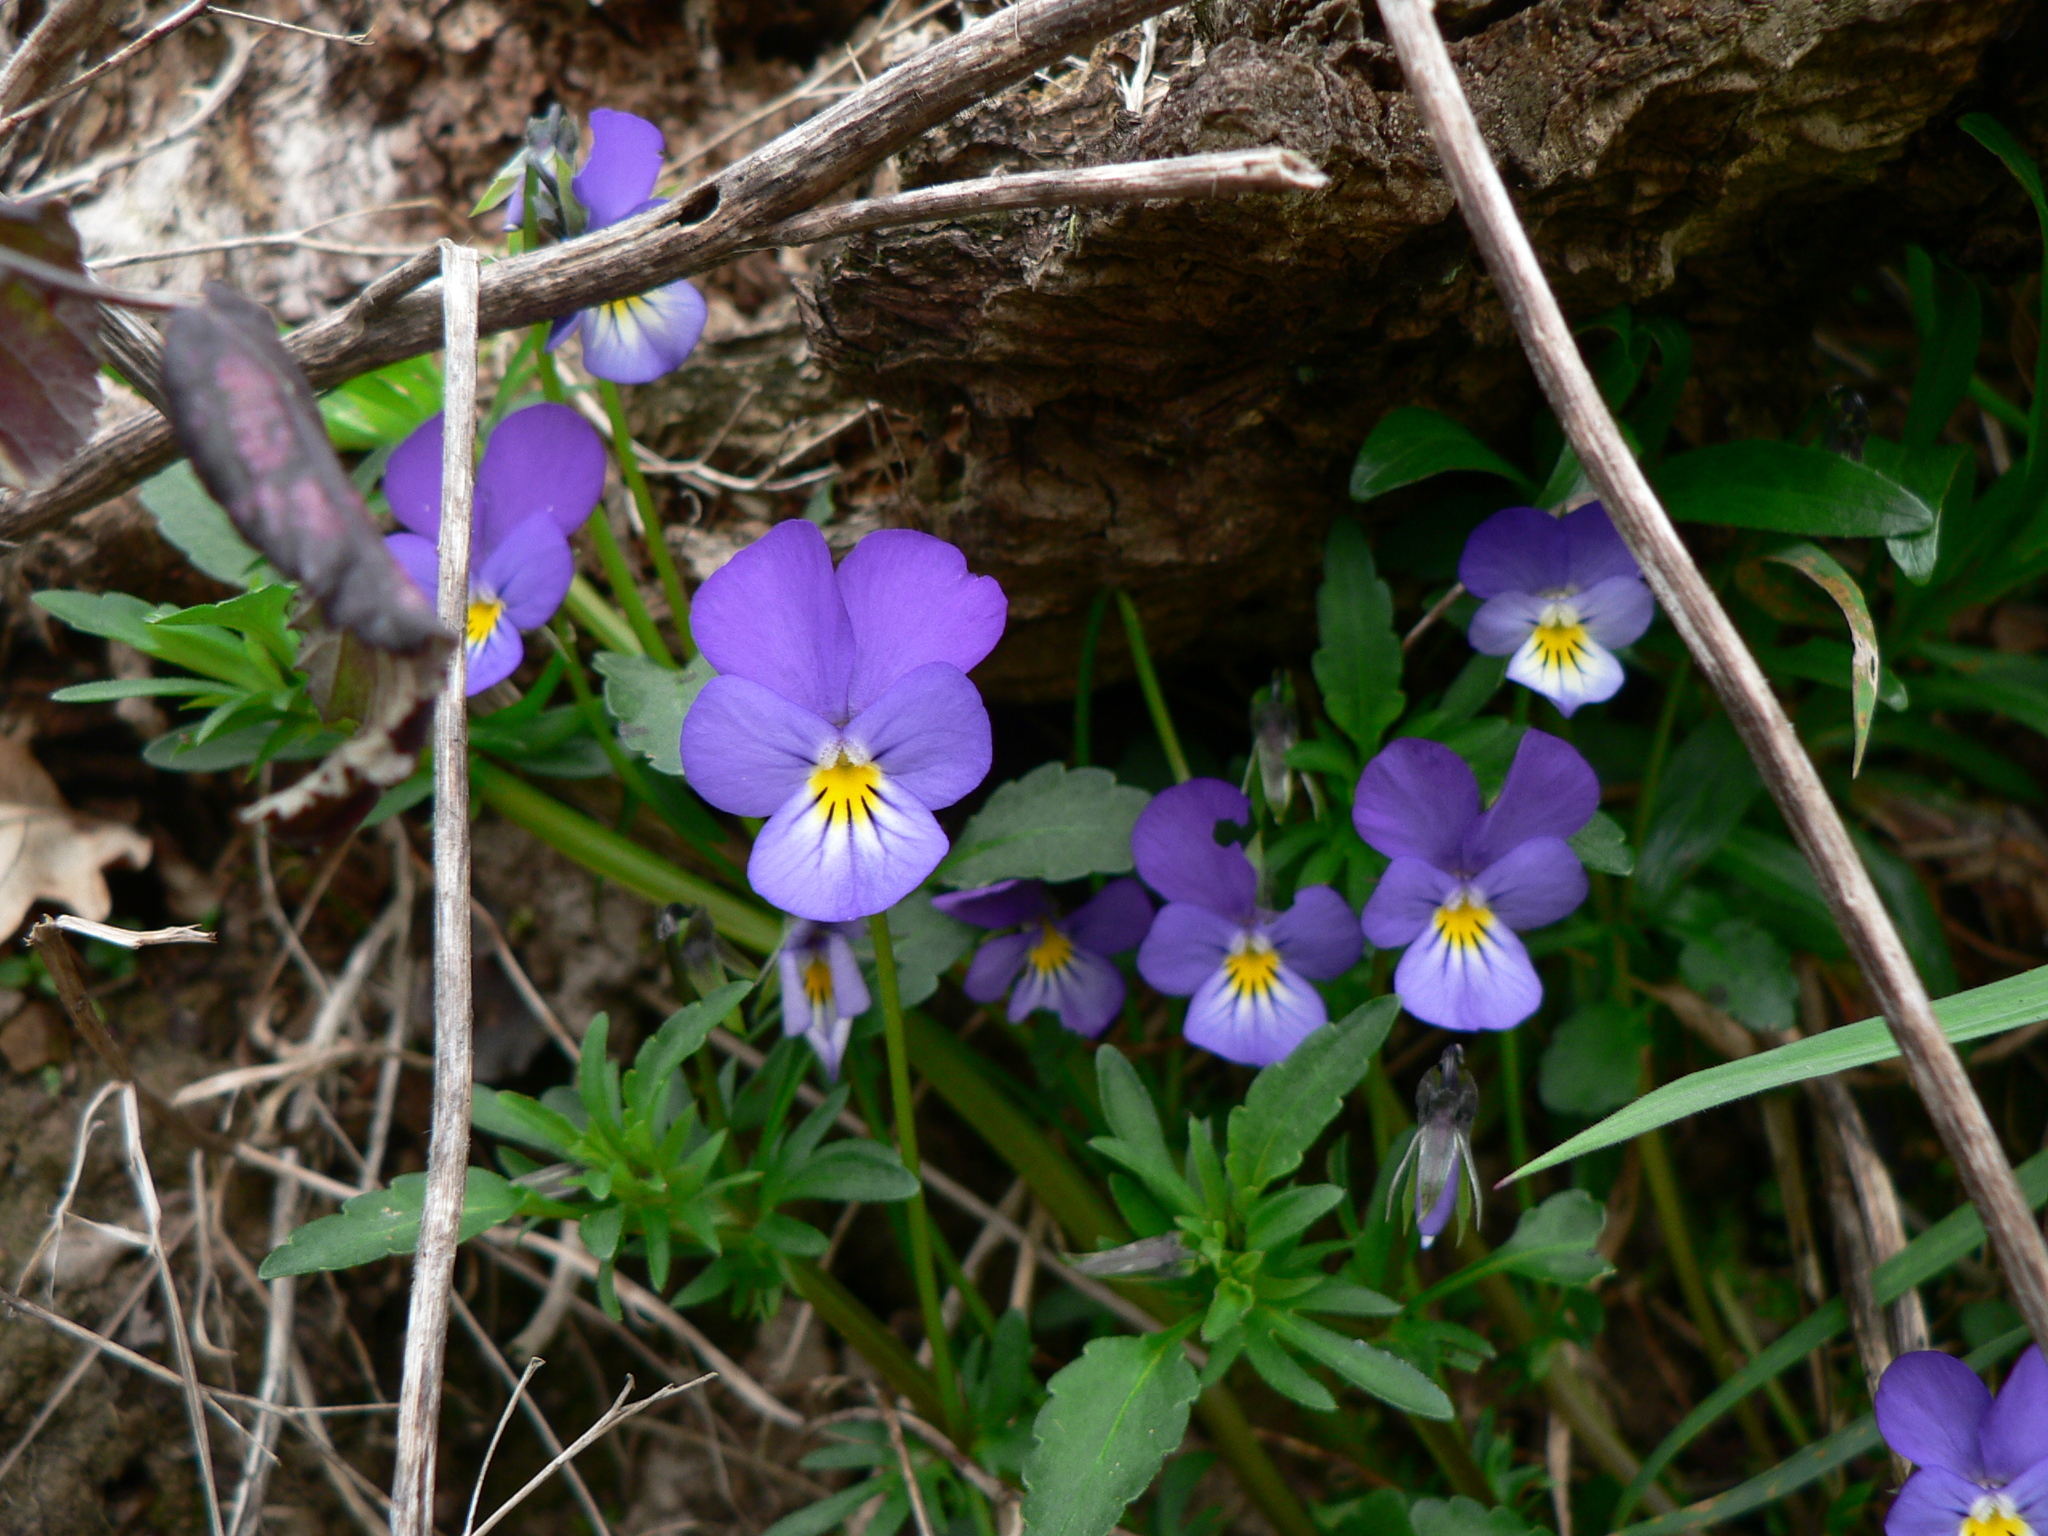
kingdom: Plantae
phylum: Tracheophyta
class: Magnoliopsida
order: Malpighiales
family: Violaceae
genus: Viola
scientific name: Viola tricolor
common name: Pansy
